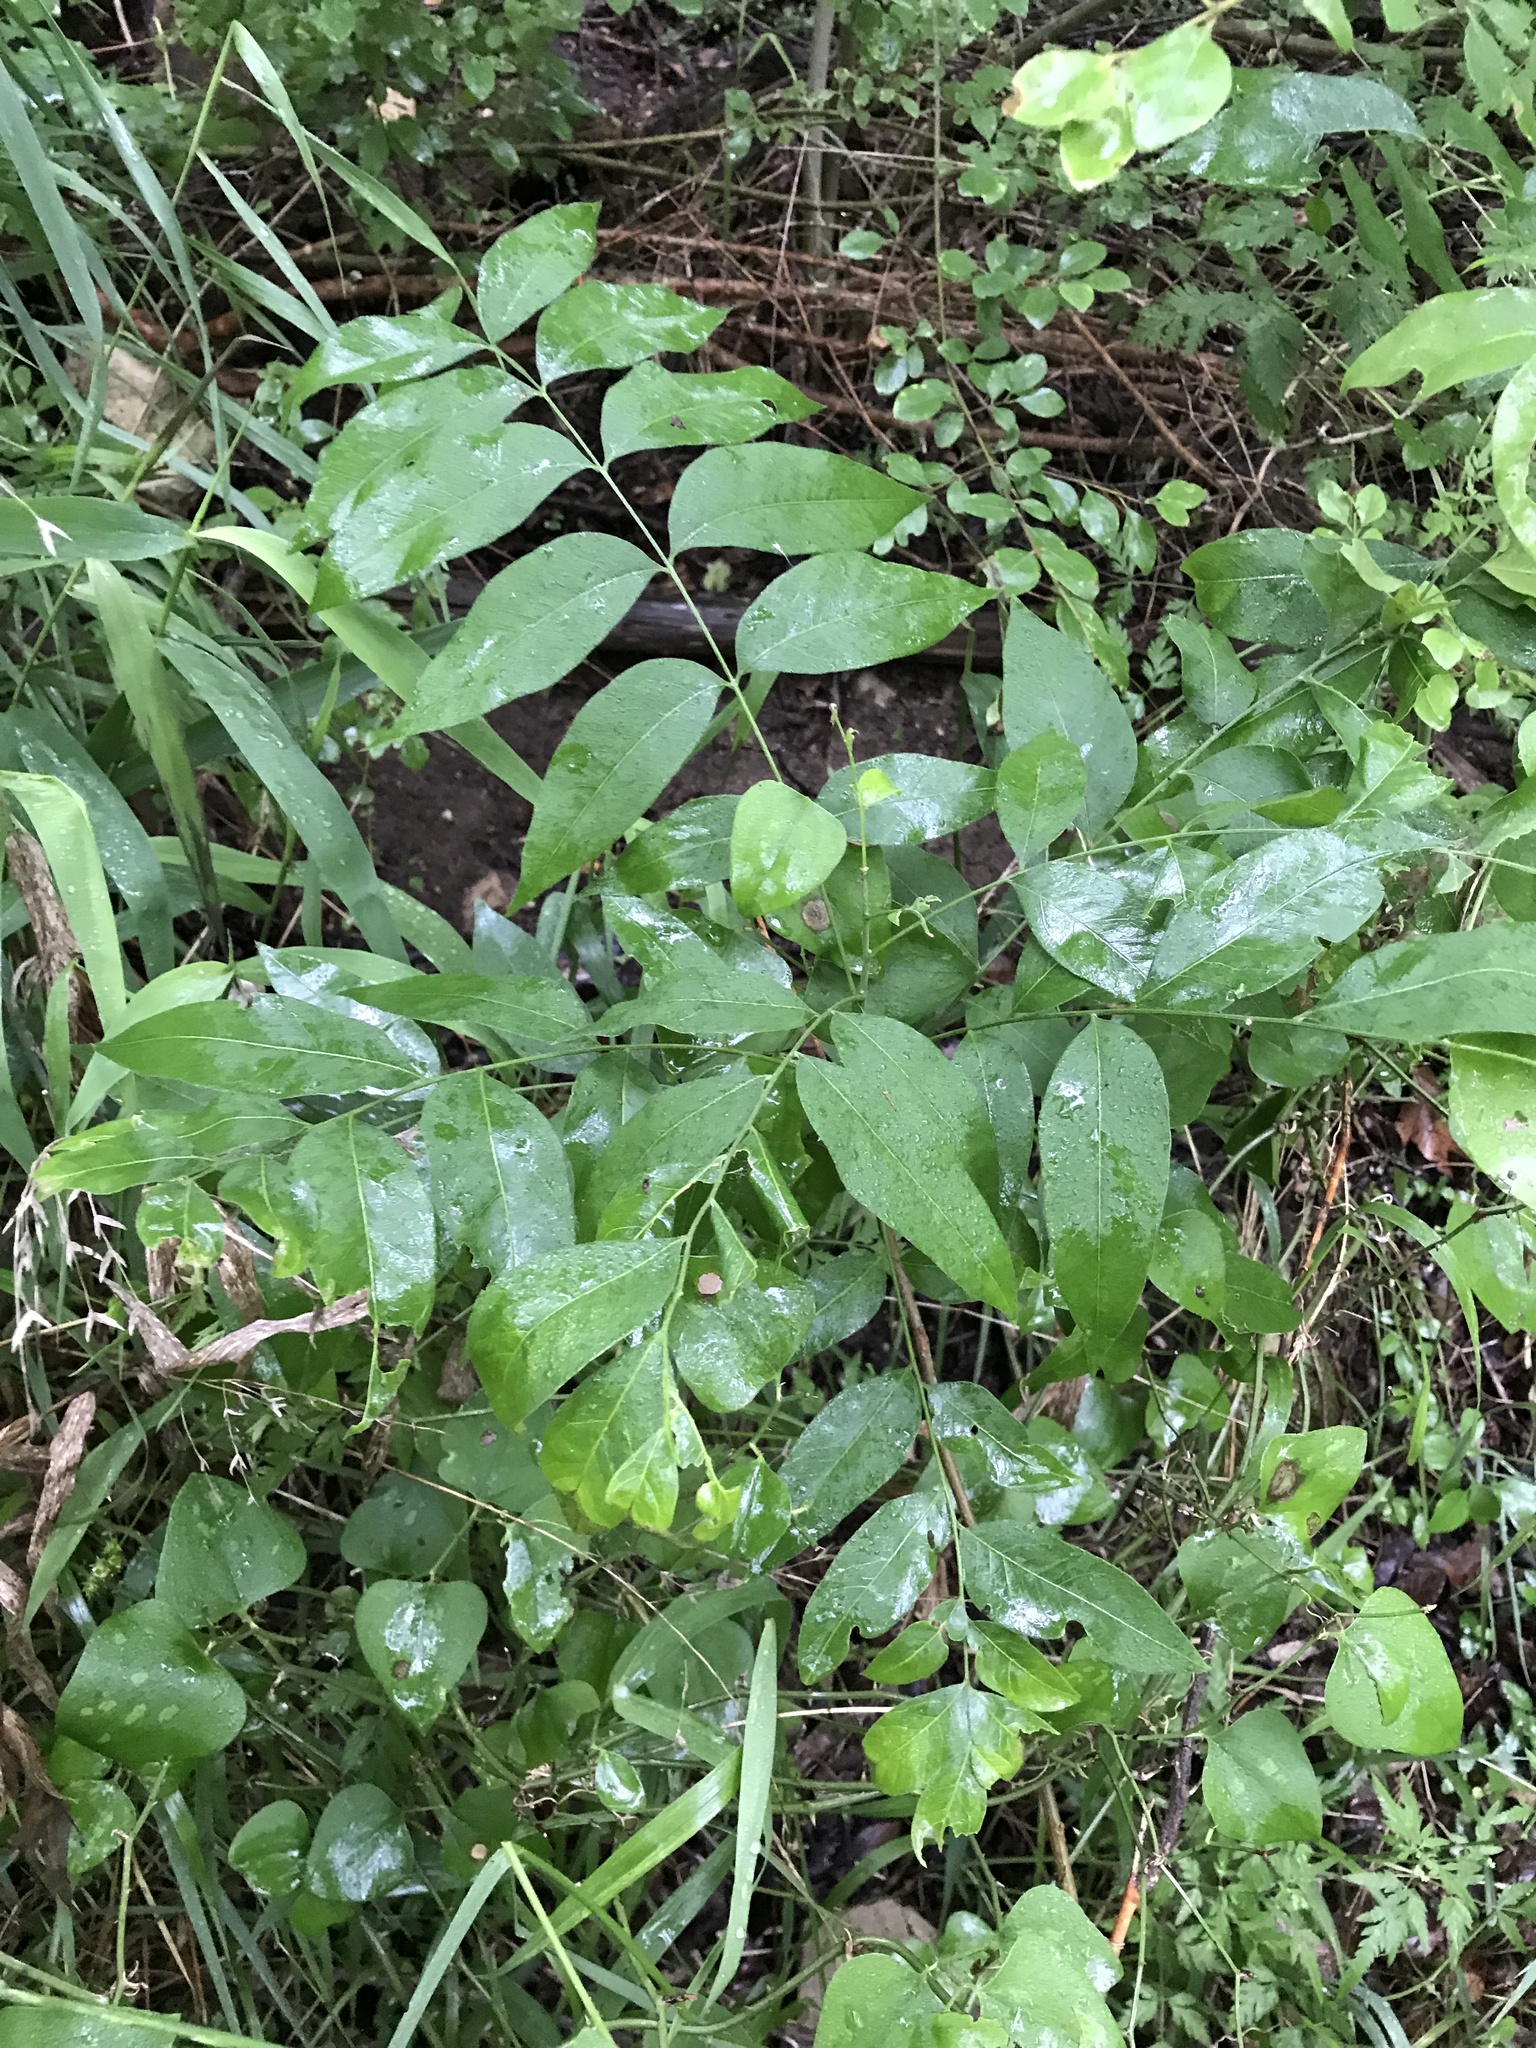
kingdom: Plantae
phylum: Tracheophyta
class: Magnoliopsida
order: Sapindales
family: Sapindaceae
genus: Sapindus
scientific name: Sapindus drummondii
